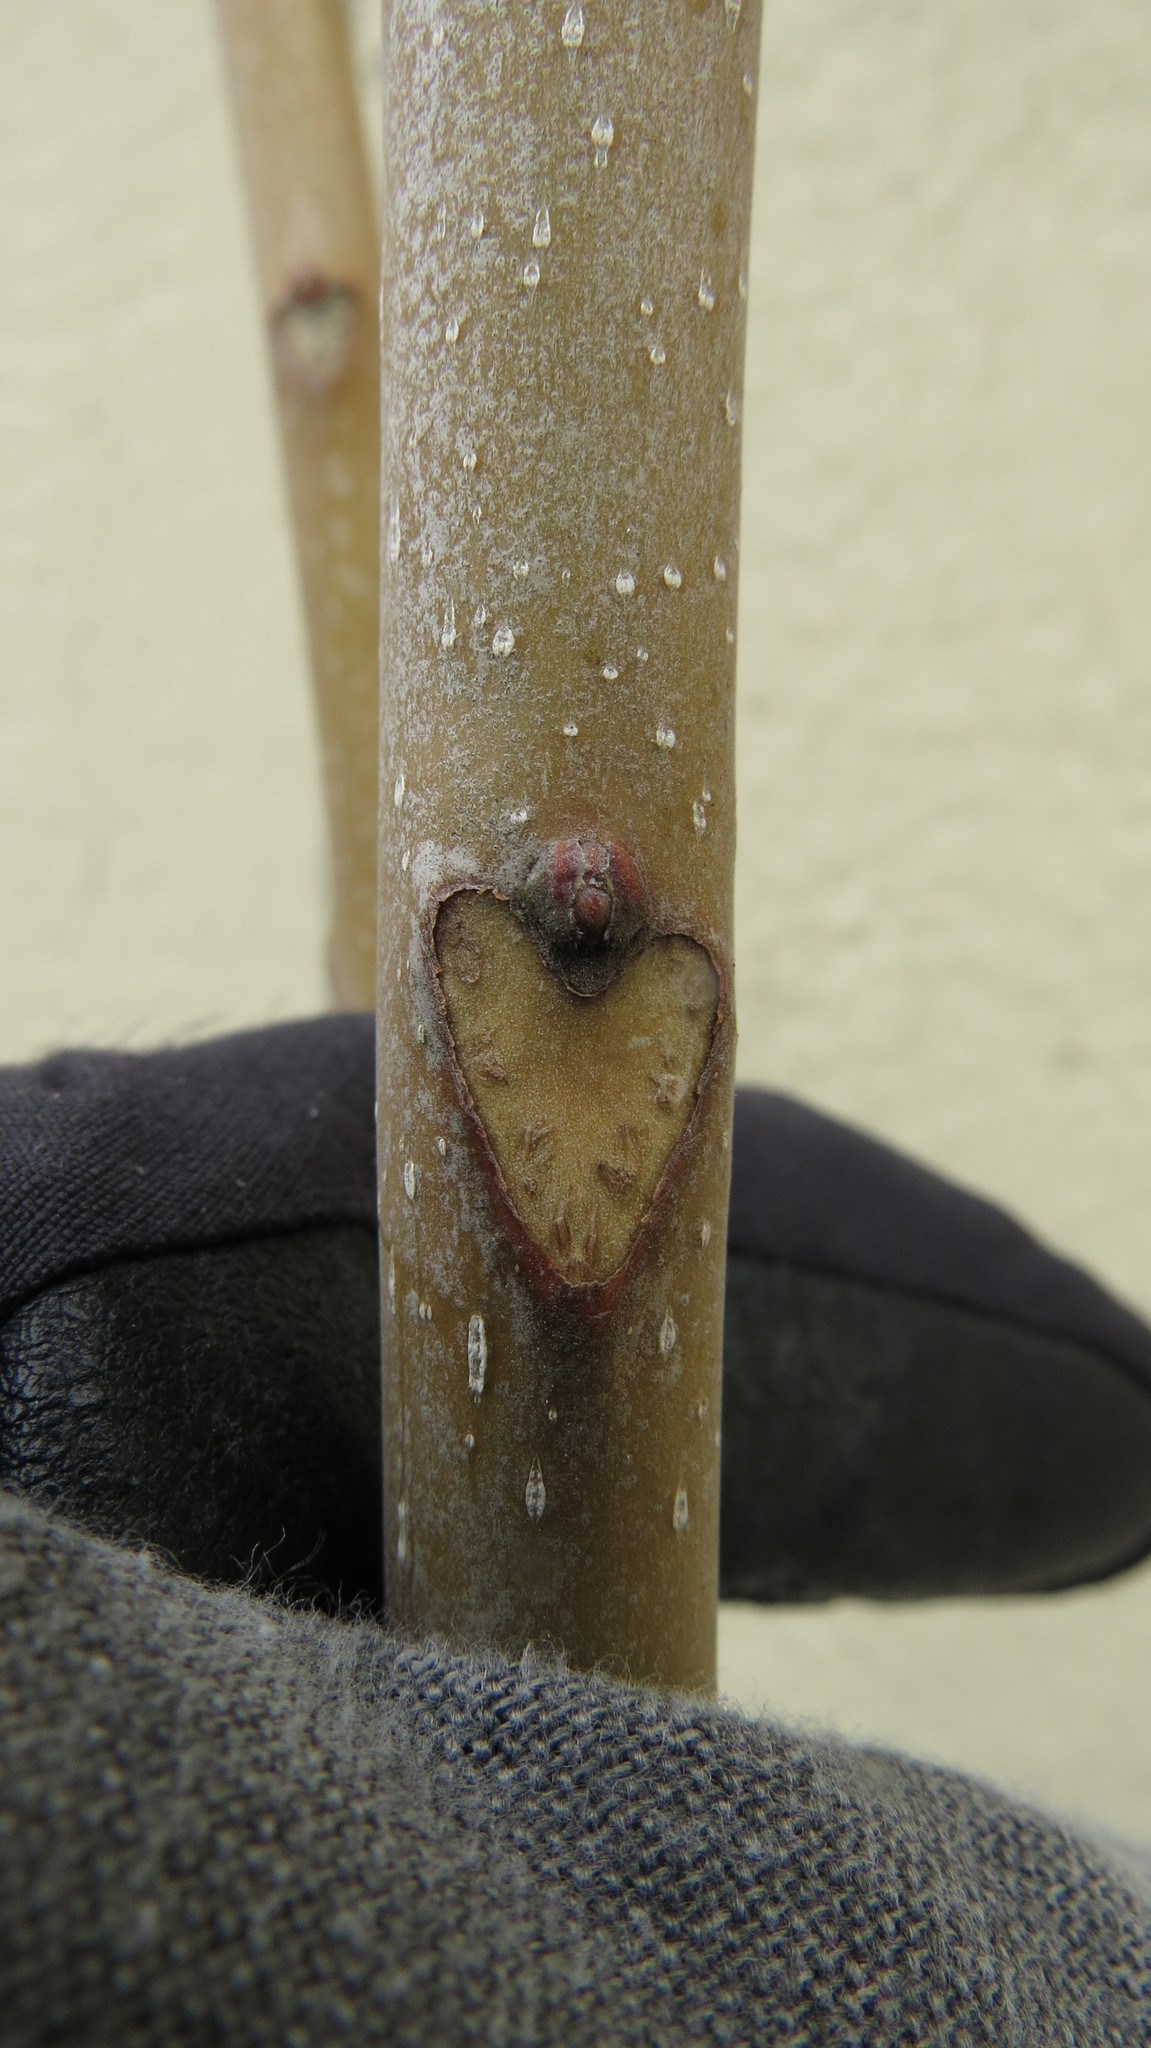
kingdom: Plantae
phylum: Tracheophyta
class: Magnoliopsida
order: Sapindales
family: Simaroubaceae
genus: Ailanthus
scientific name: Ailanthus altissima
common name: Tree-of-heaven
